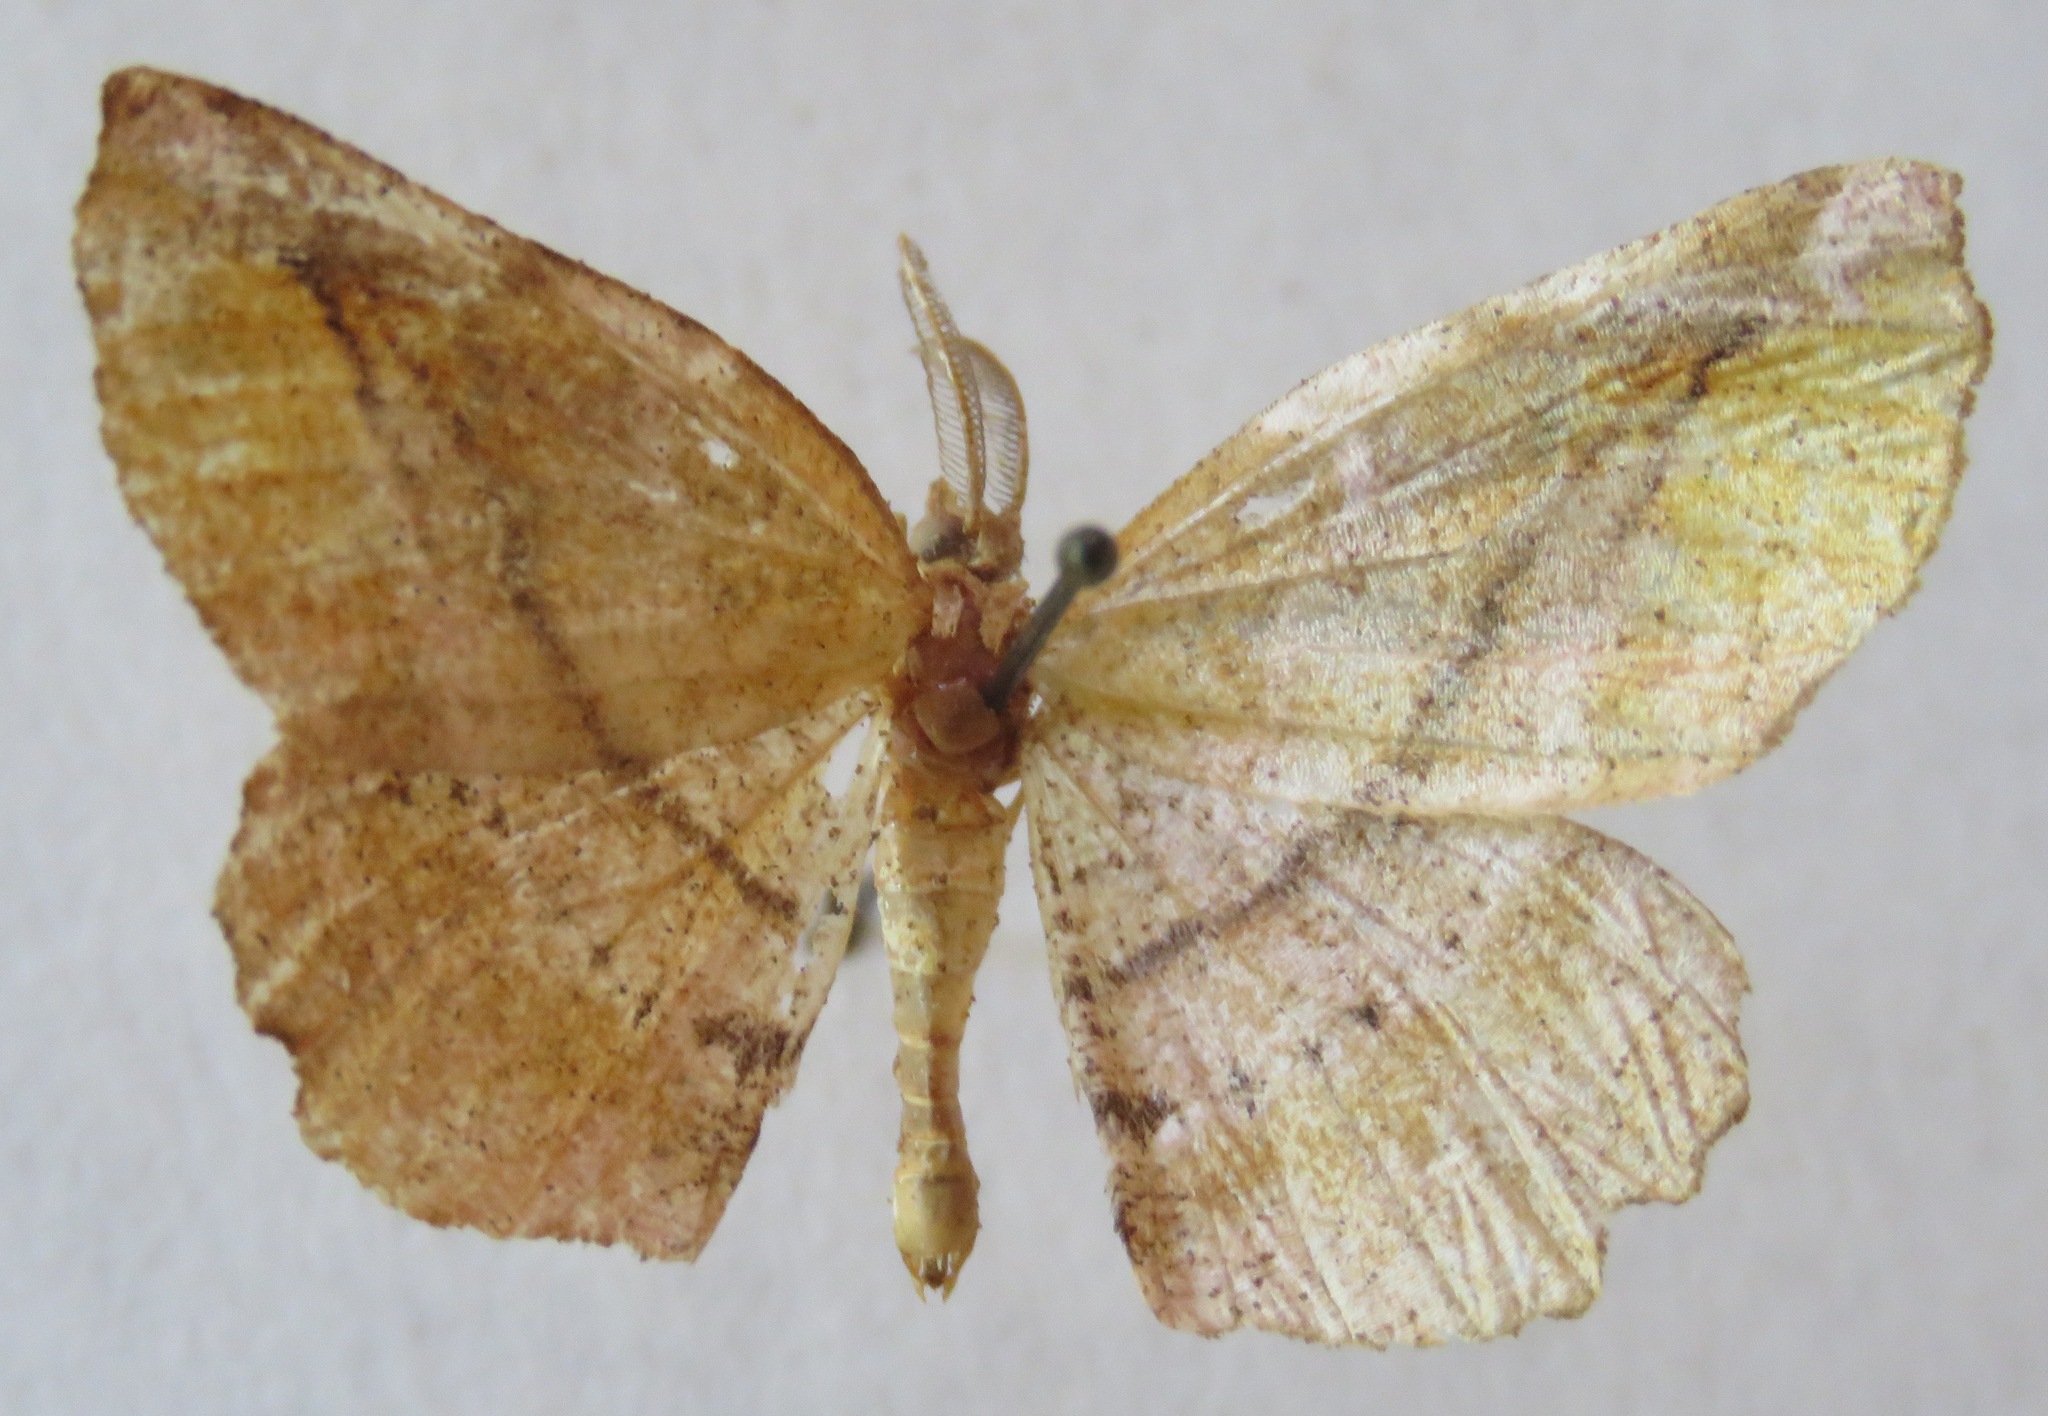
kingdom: Animalia
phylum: Arthropoda
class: Insecta
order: Lepidoptera
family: Geometridae
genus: Apeira
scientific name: Apeira syringaria
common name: Lilac beauty
